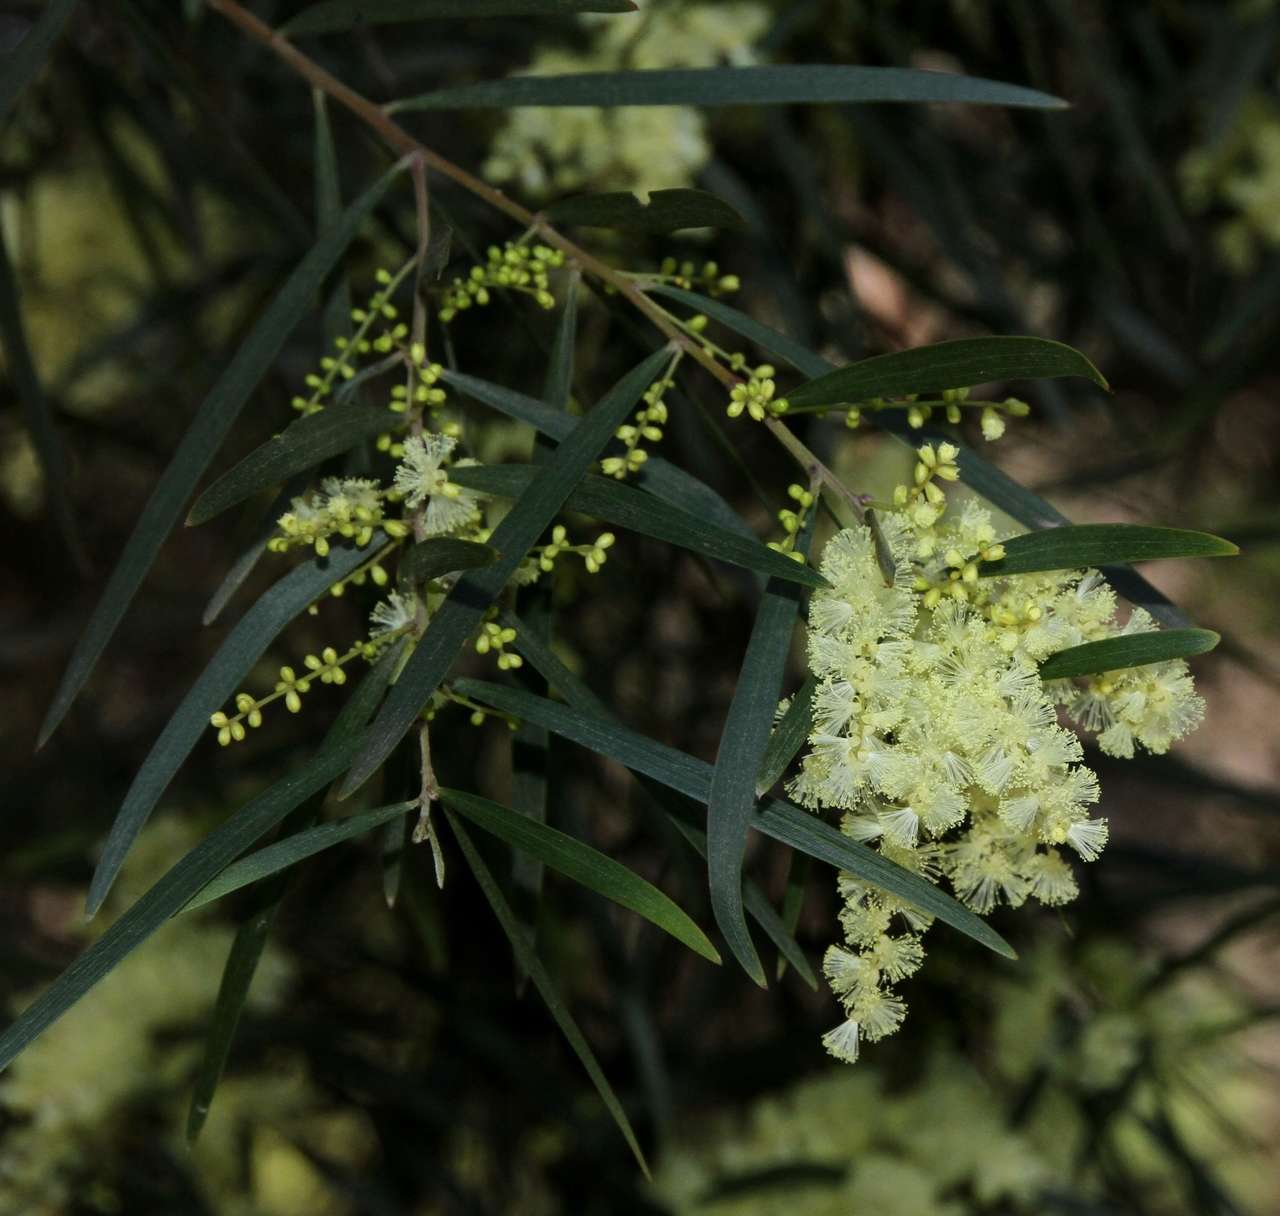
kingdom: Plantae
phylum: Tracheophyta
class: Magnoliopsida
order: Fabales
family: Fabaceae
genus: Acacia
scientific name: Acacia floribunda
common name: Gossamer wattle
